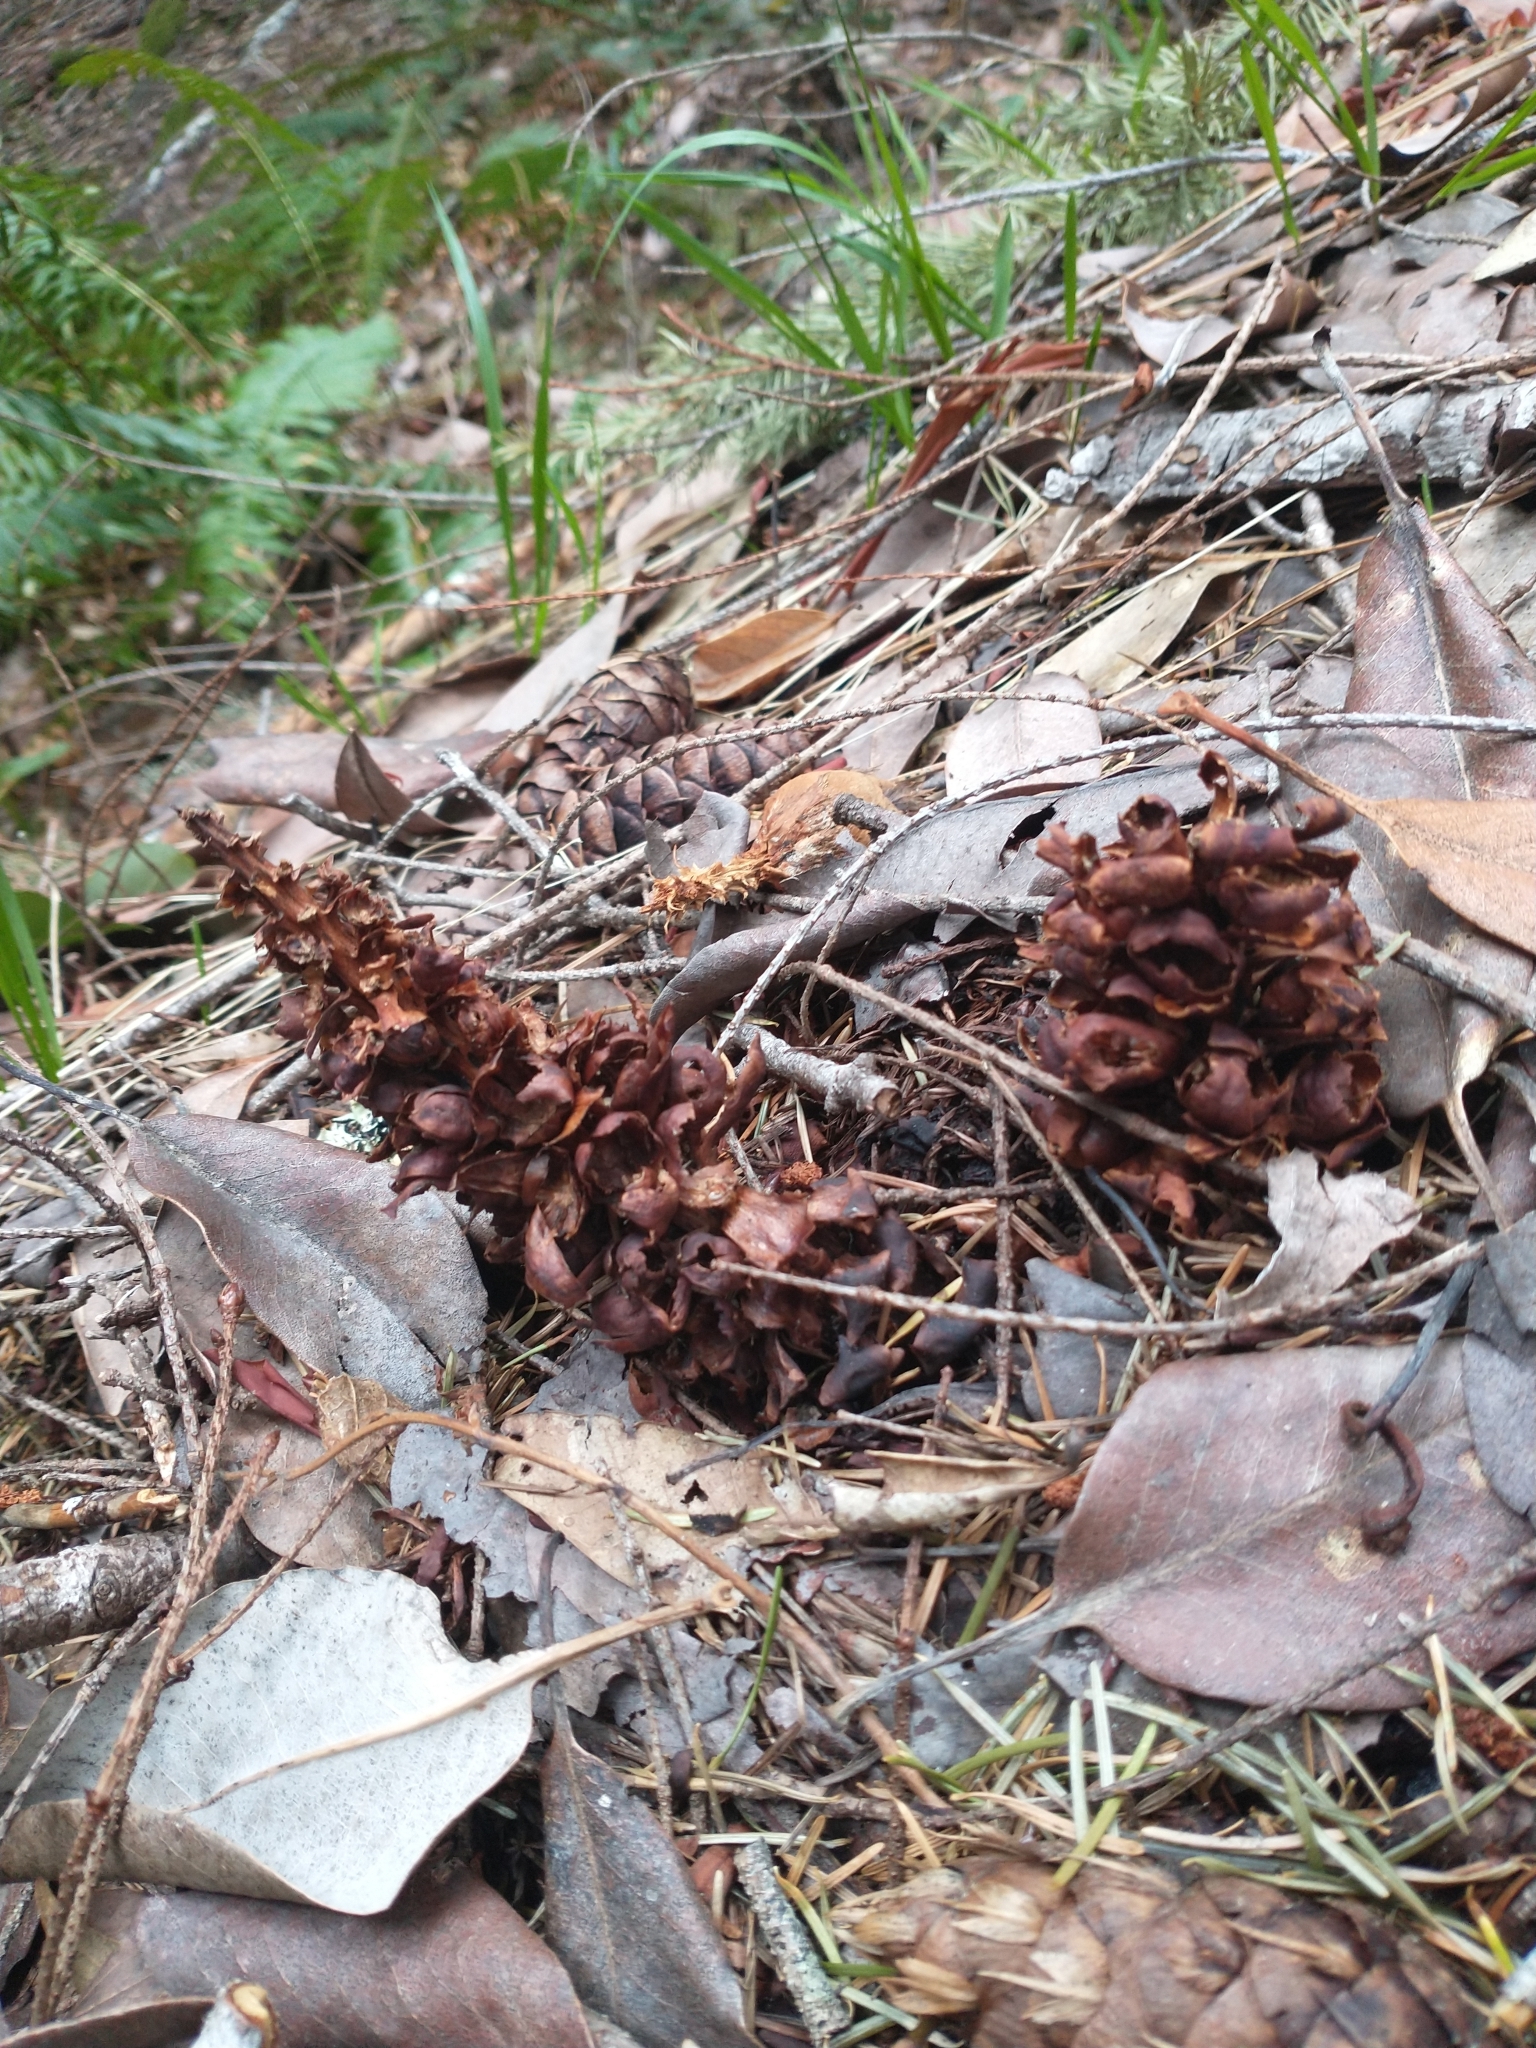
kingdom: Plantae
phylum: Tracheophyta
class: Magnoliopsida
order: Lamiales
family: Orobanchaceae
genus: Kopsiopsis
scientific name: Kopsiopsis strobilacea
